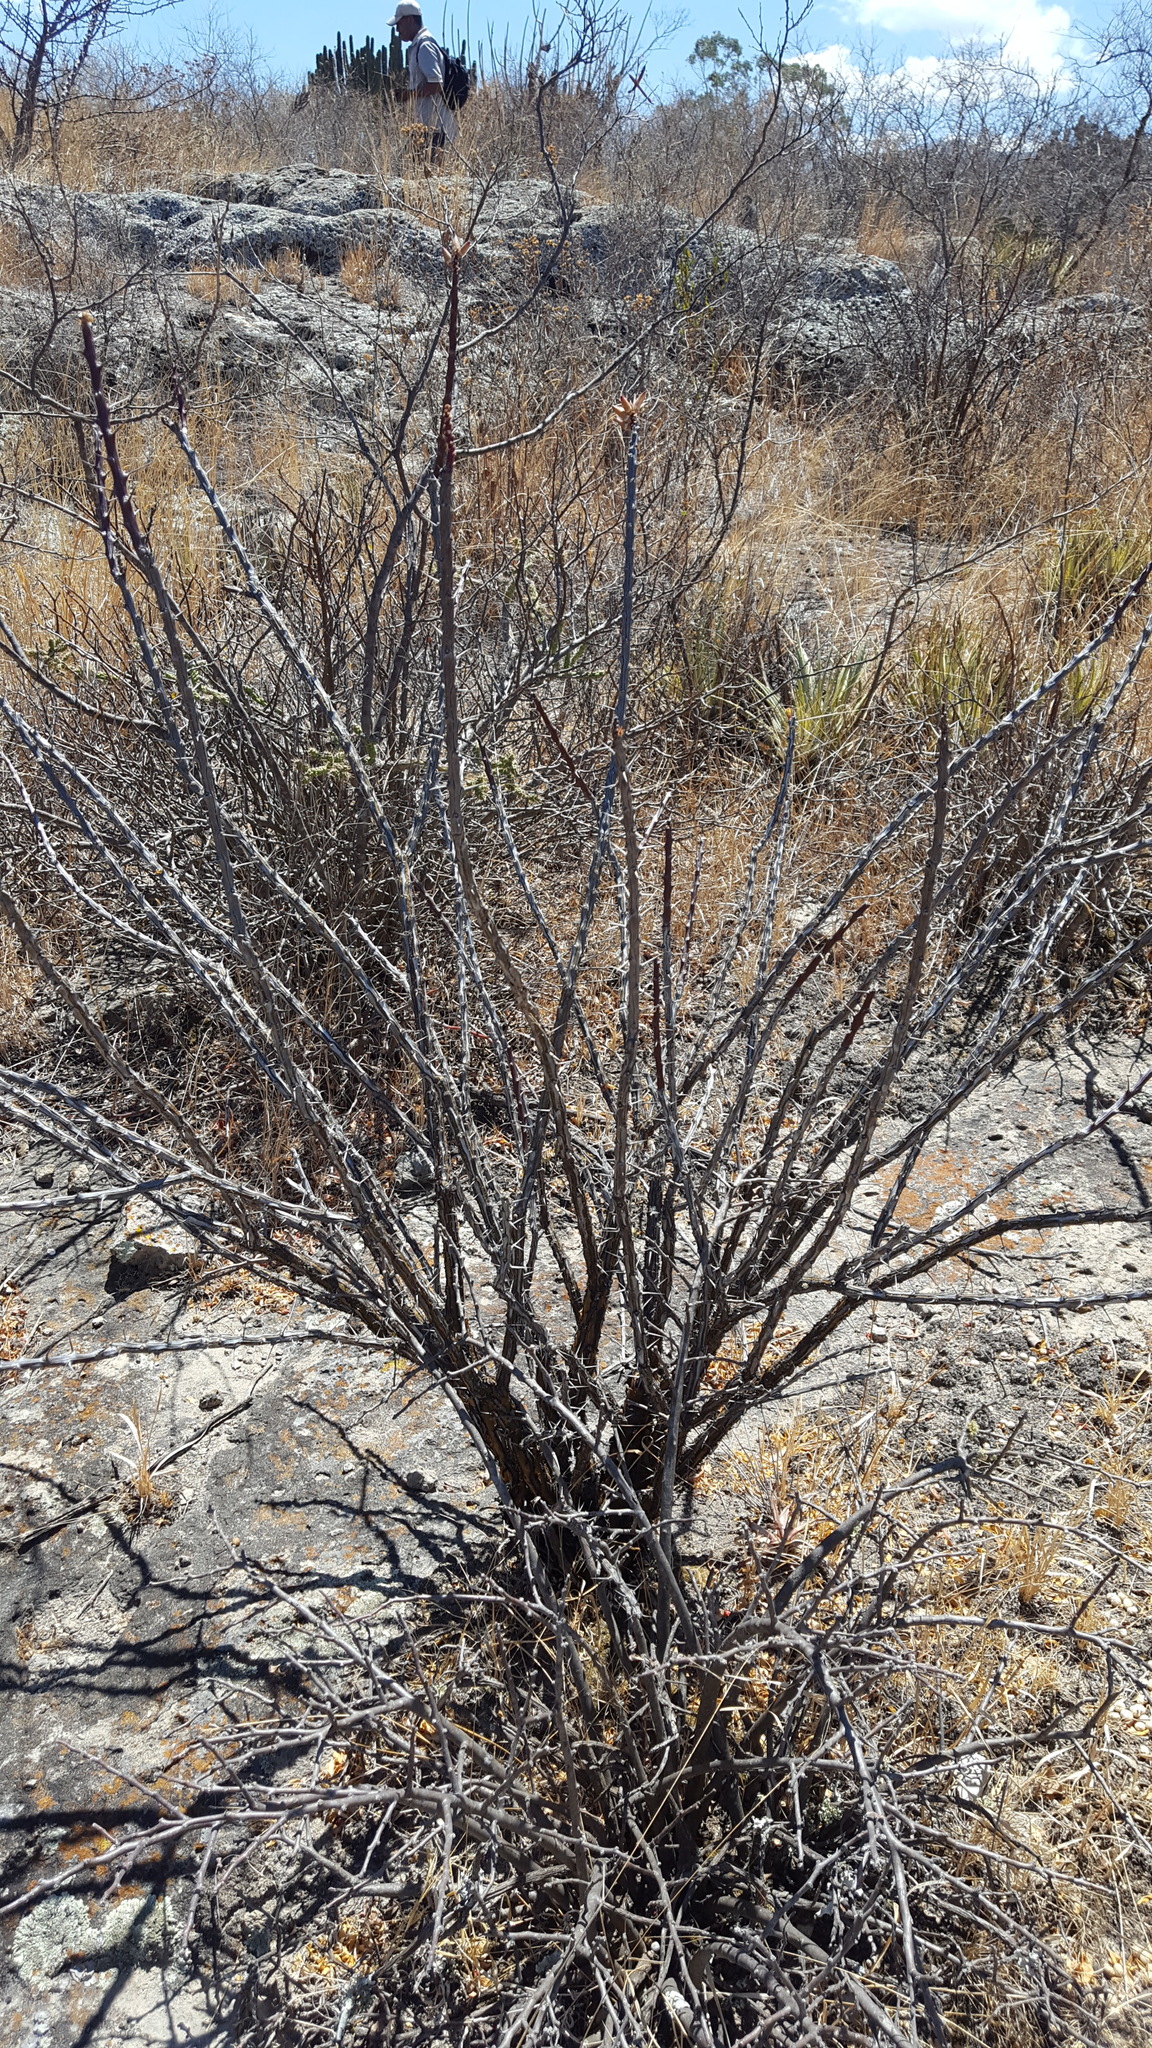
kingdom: Plantae
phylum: Tracheophyta
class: Magnoliopsida
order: Ericales
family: Fouquieriaceae
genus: Fouquieria
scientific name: Fouquieria formosa
